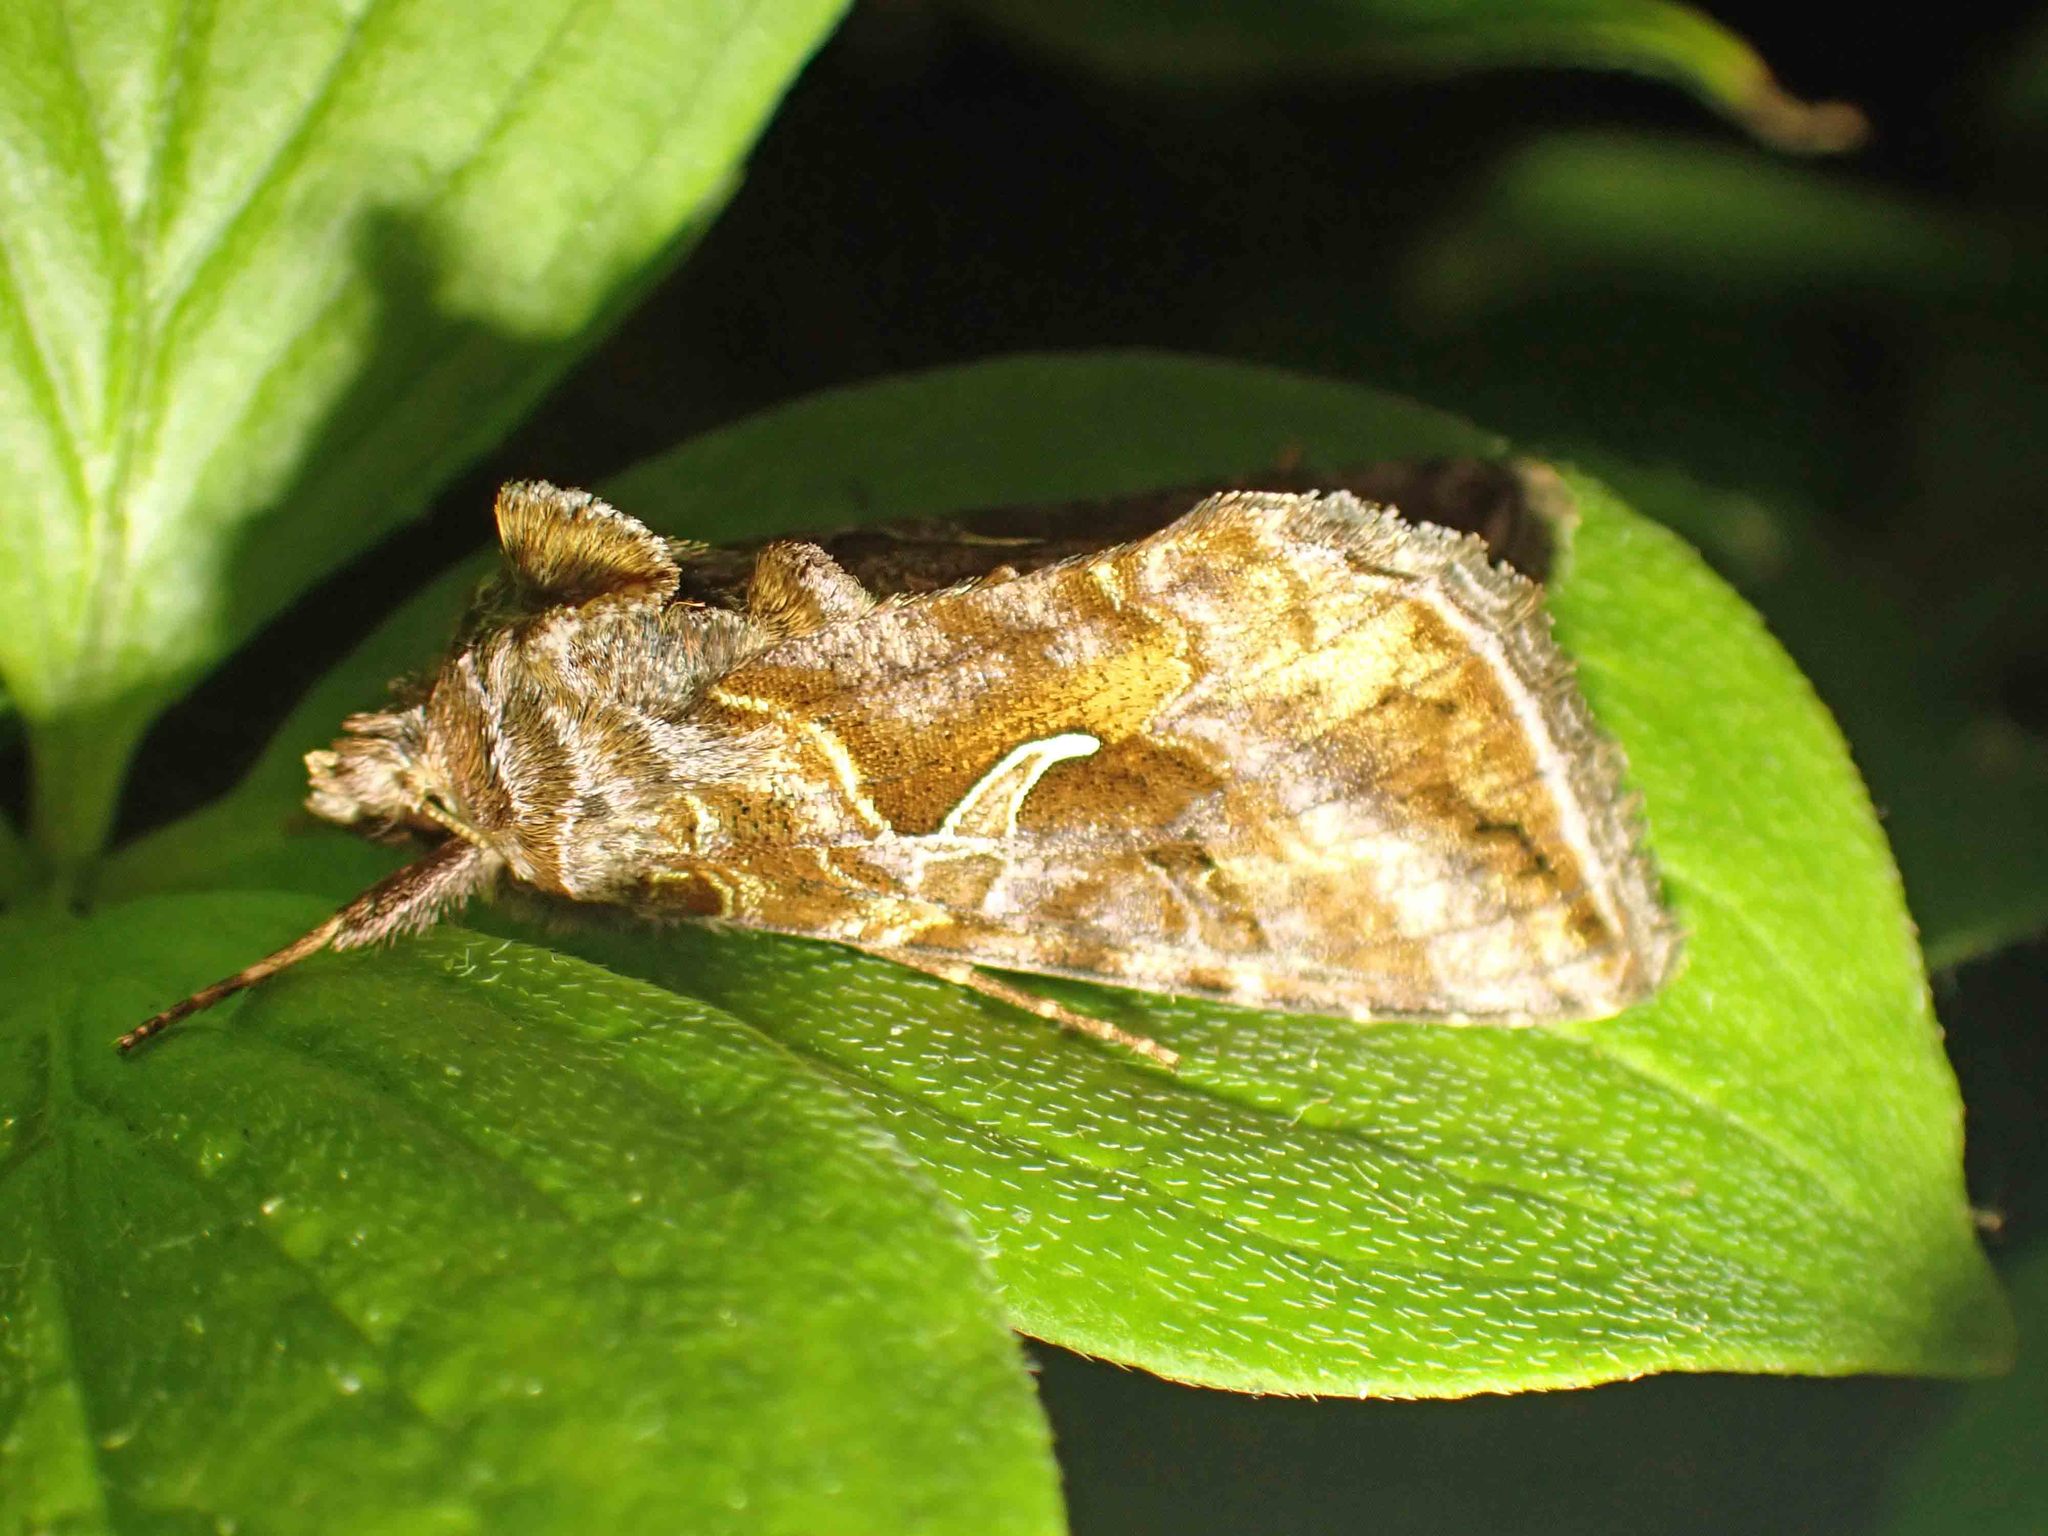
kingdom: Animalia
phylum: Arthropoda
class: Insecta
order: Lepidoptera
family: Noctuidae
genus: Autographa
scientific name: Autographa rubidus
